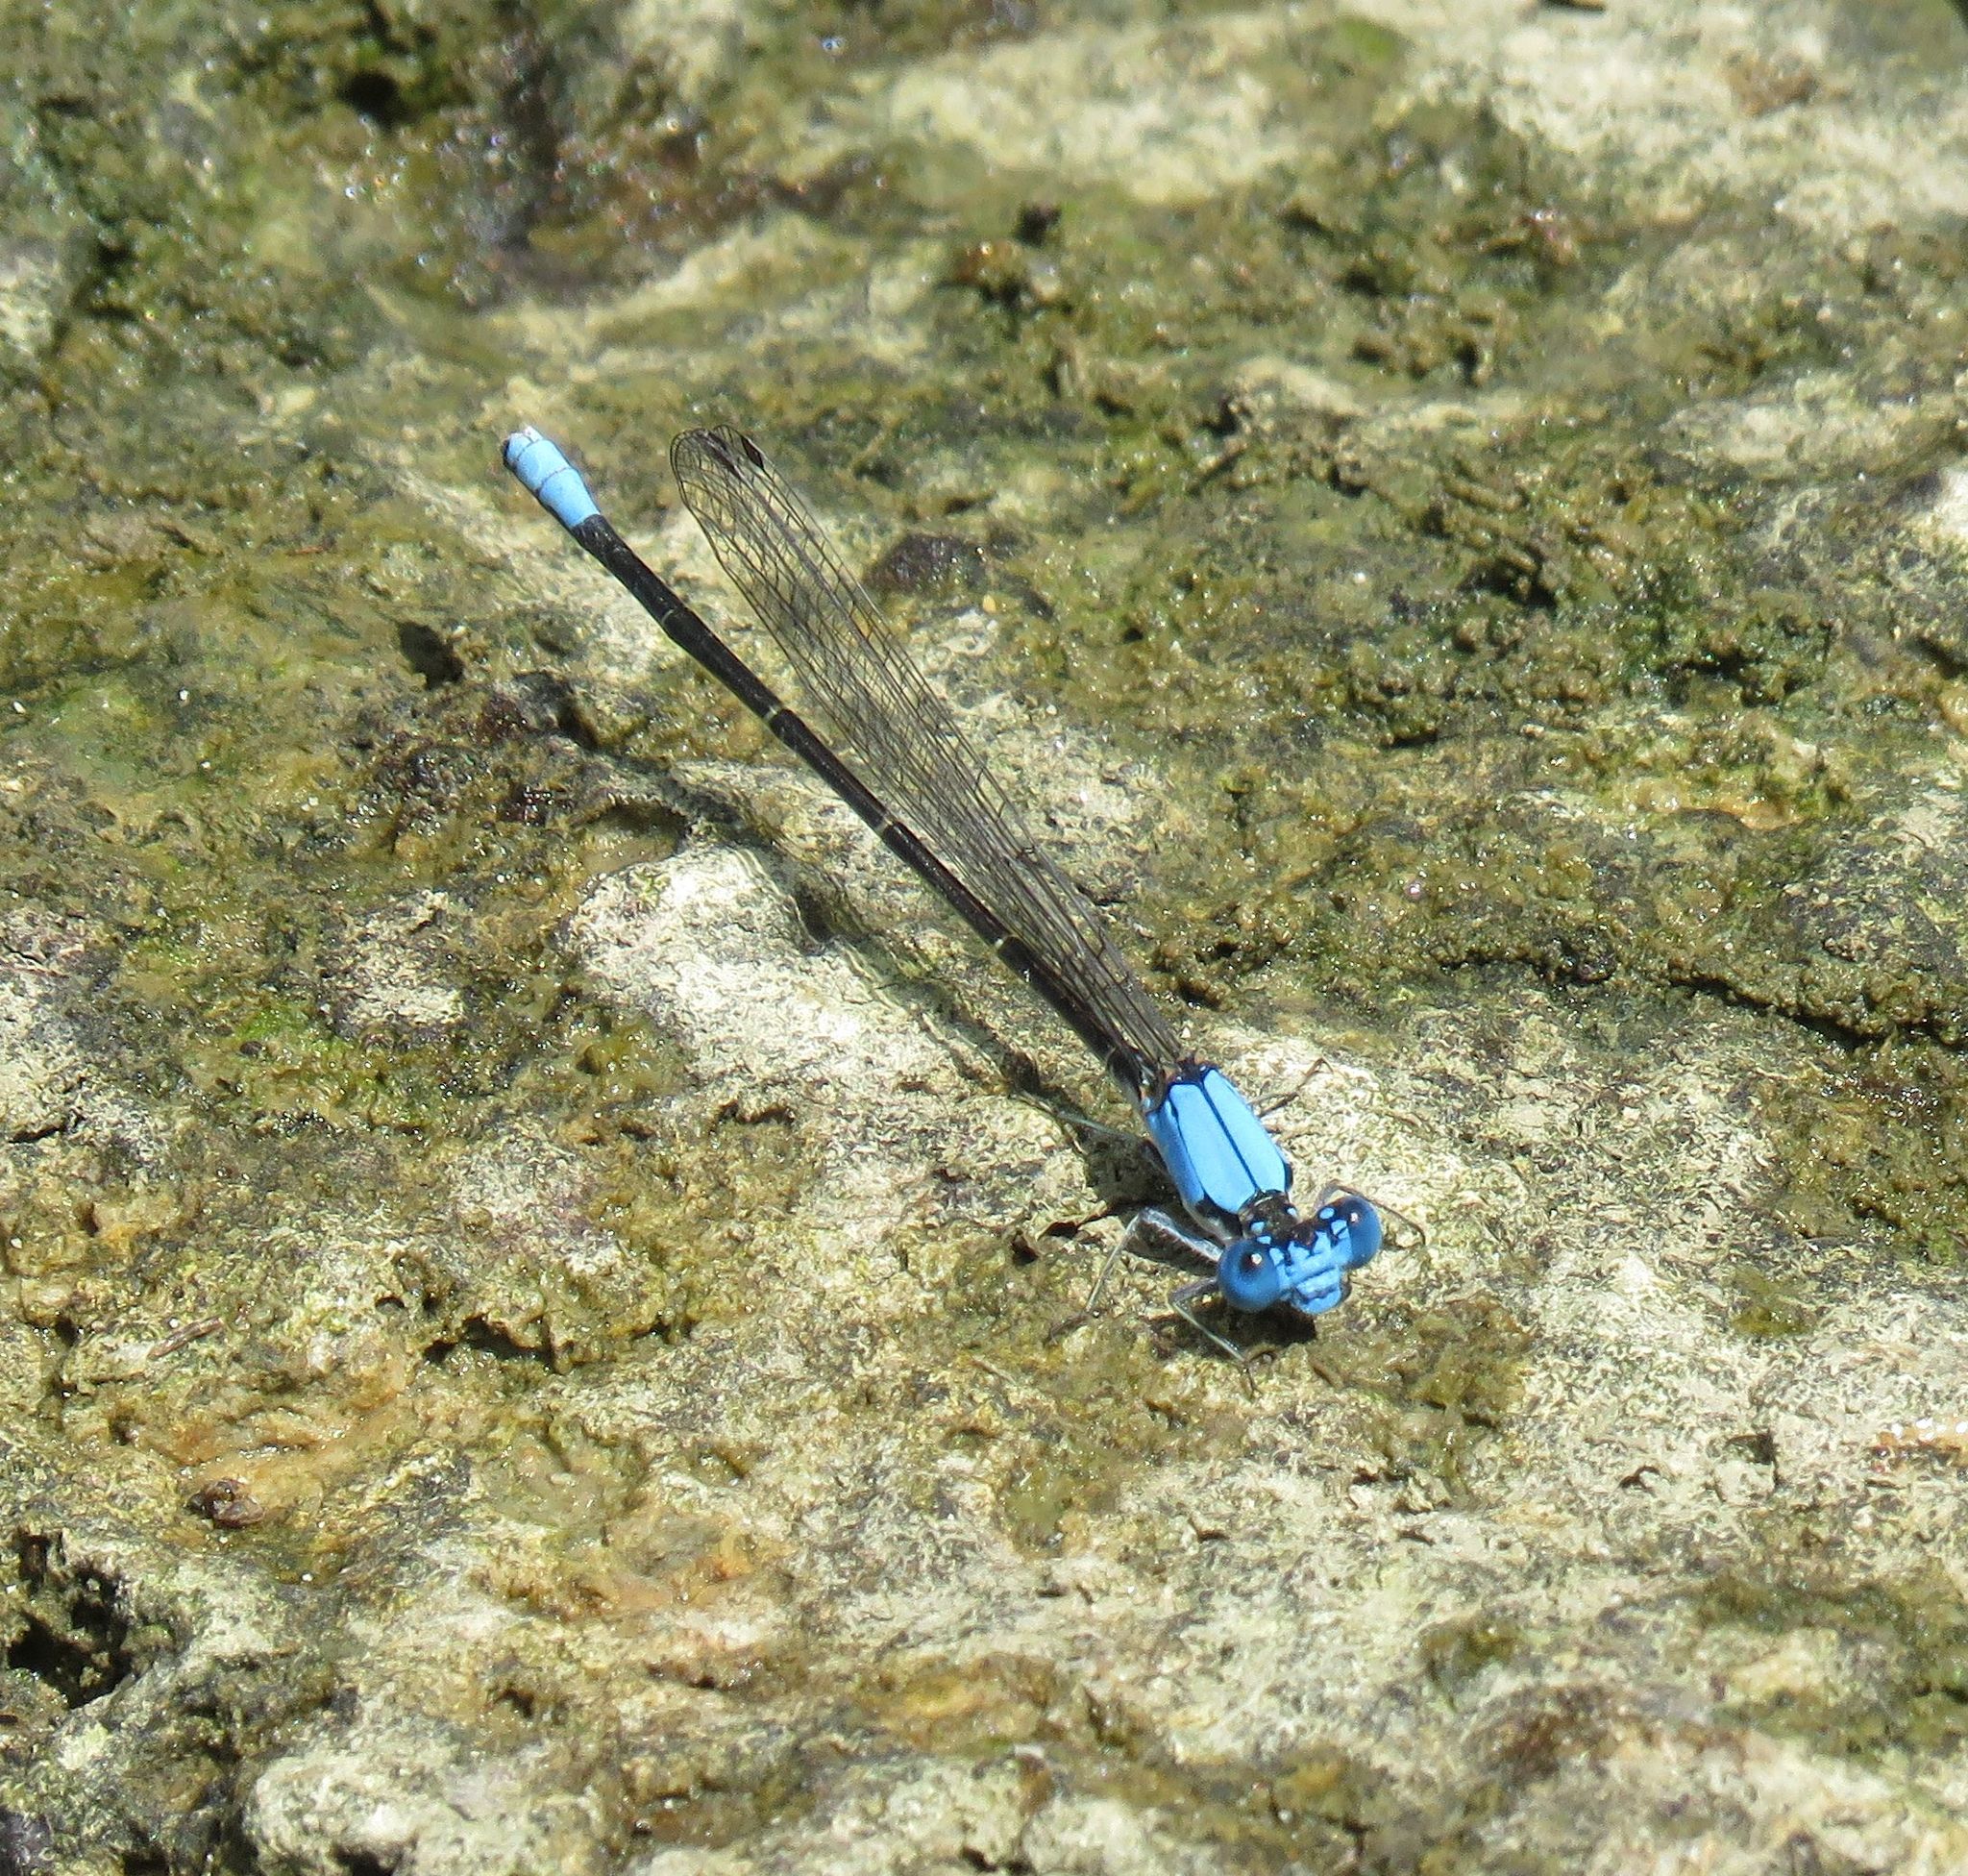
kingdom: Animalia
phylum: Arthropoda
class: Insecta
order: Odonata
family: Coenagrionidae
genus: Argia
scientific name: Argia apicalis
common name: Blue-fronted dancer
